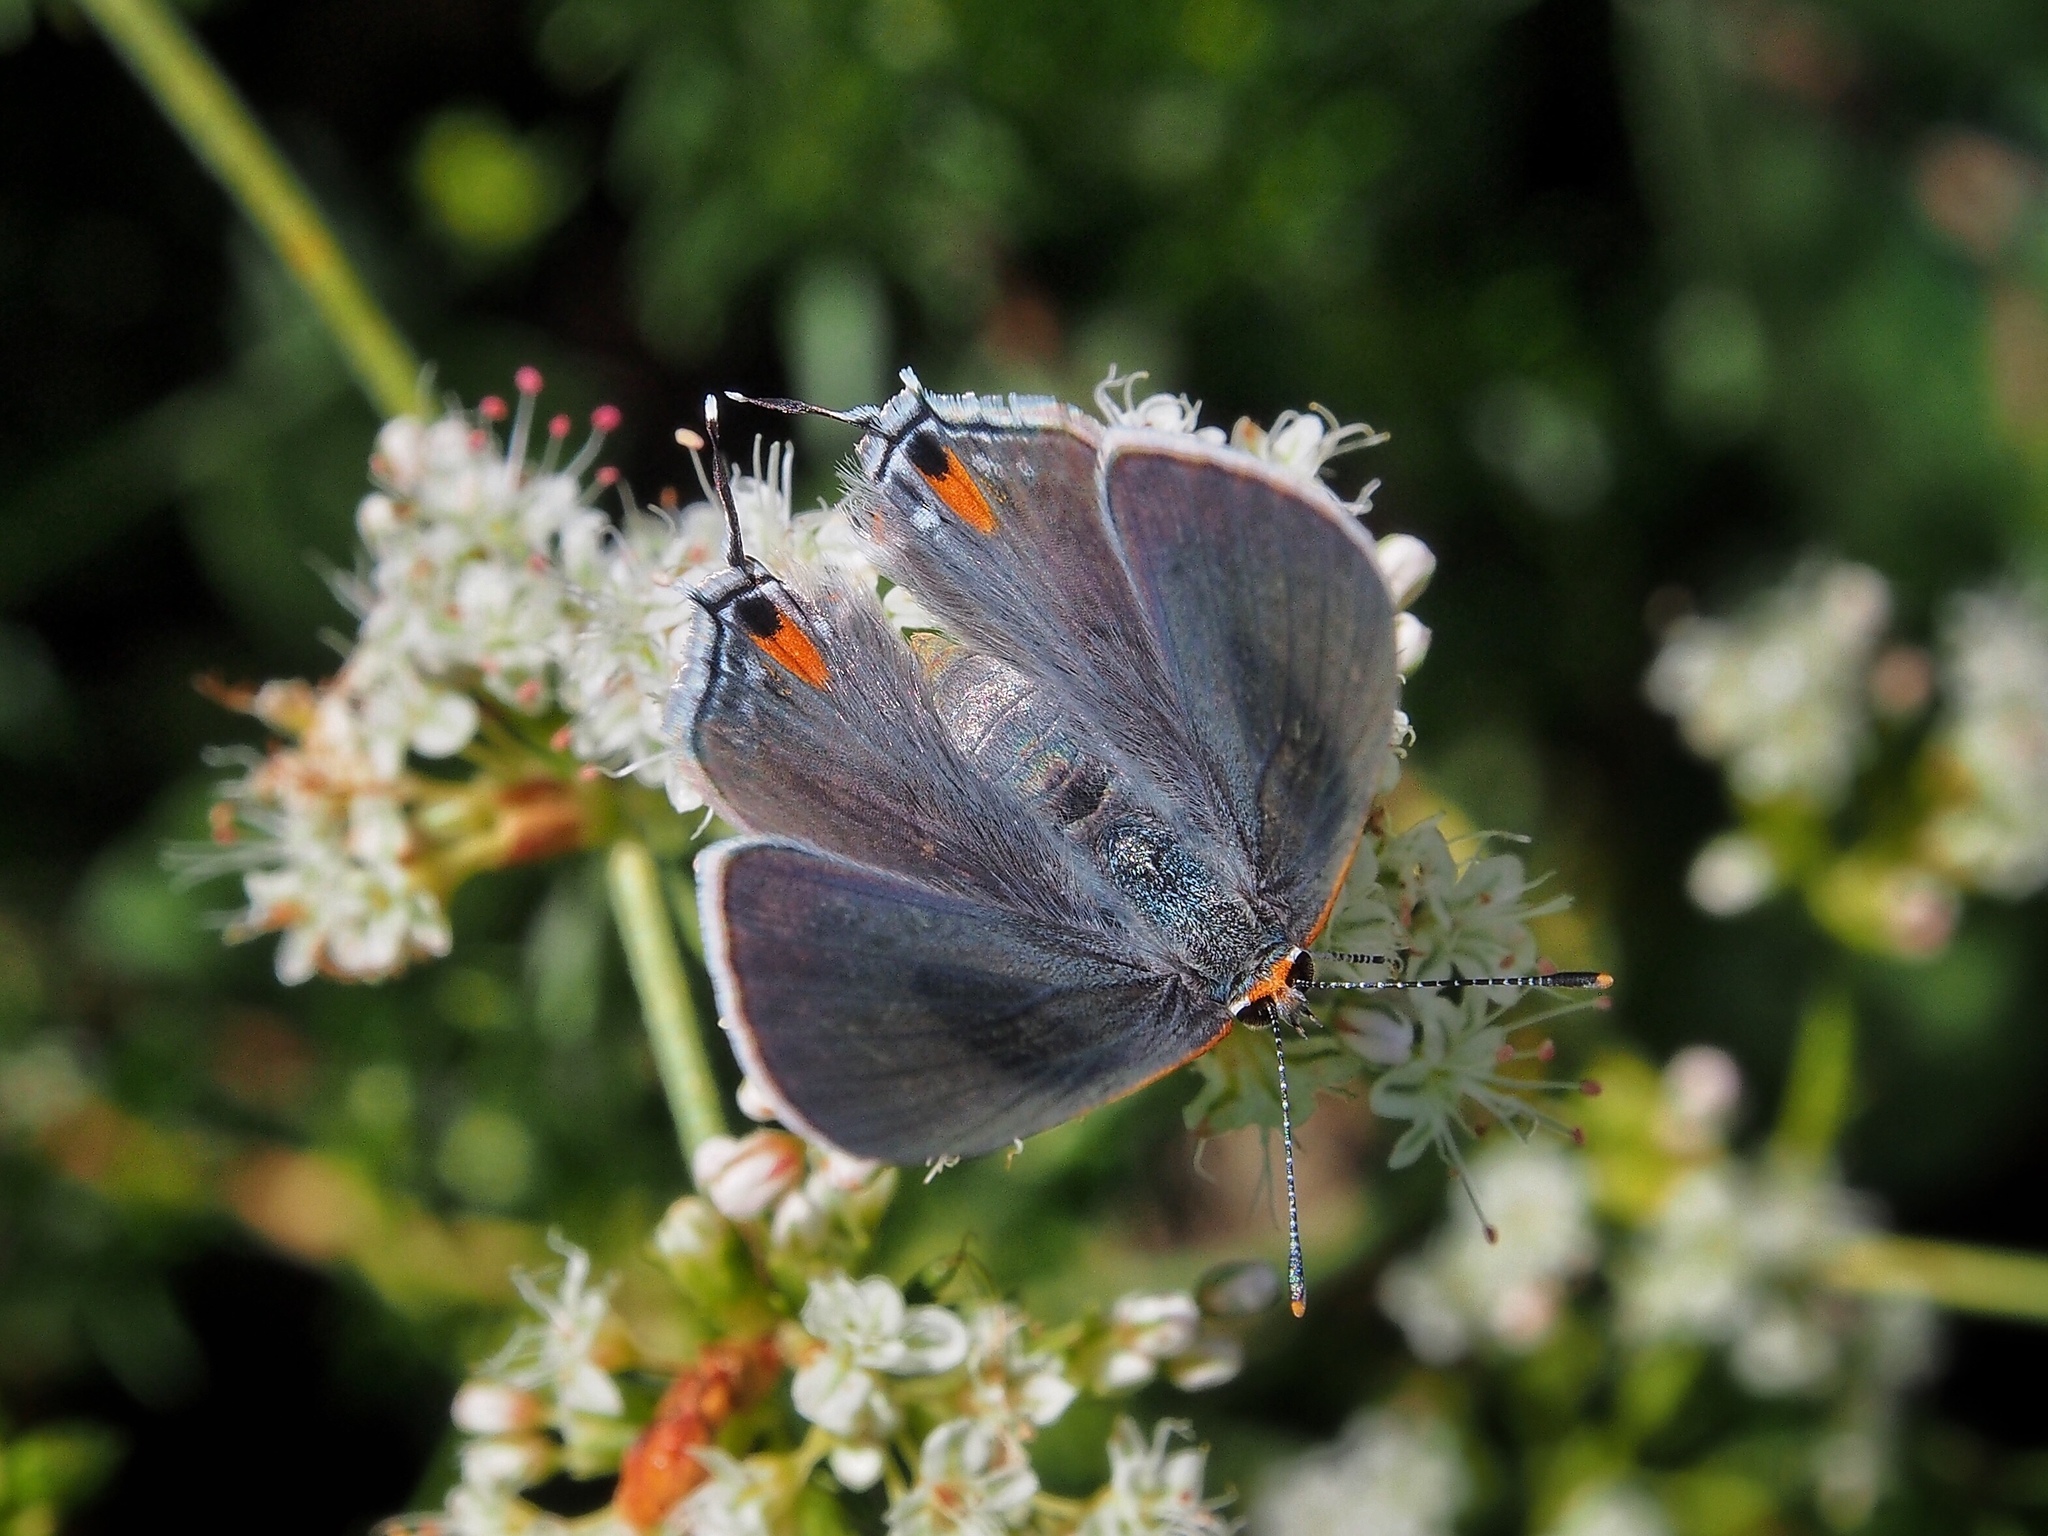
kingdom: Animalia
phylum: Arthropoda
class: Insecta
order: Lepidoptera
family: Lycaenidae
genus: Strymon
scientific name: Strymon melinus
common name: Gray hairstreak
